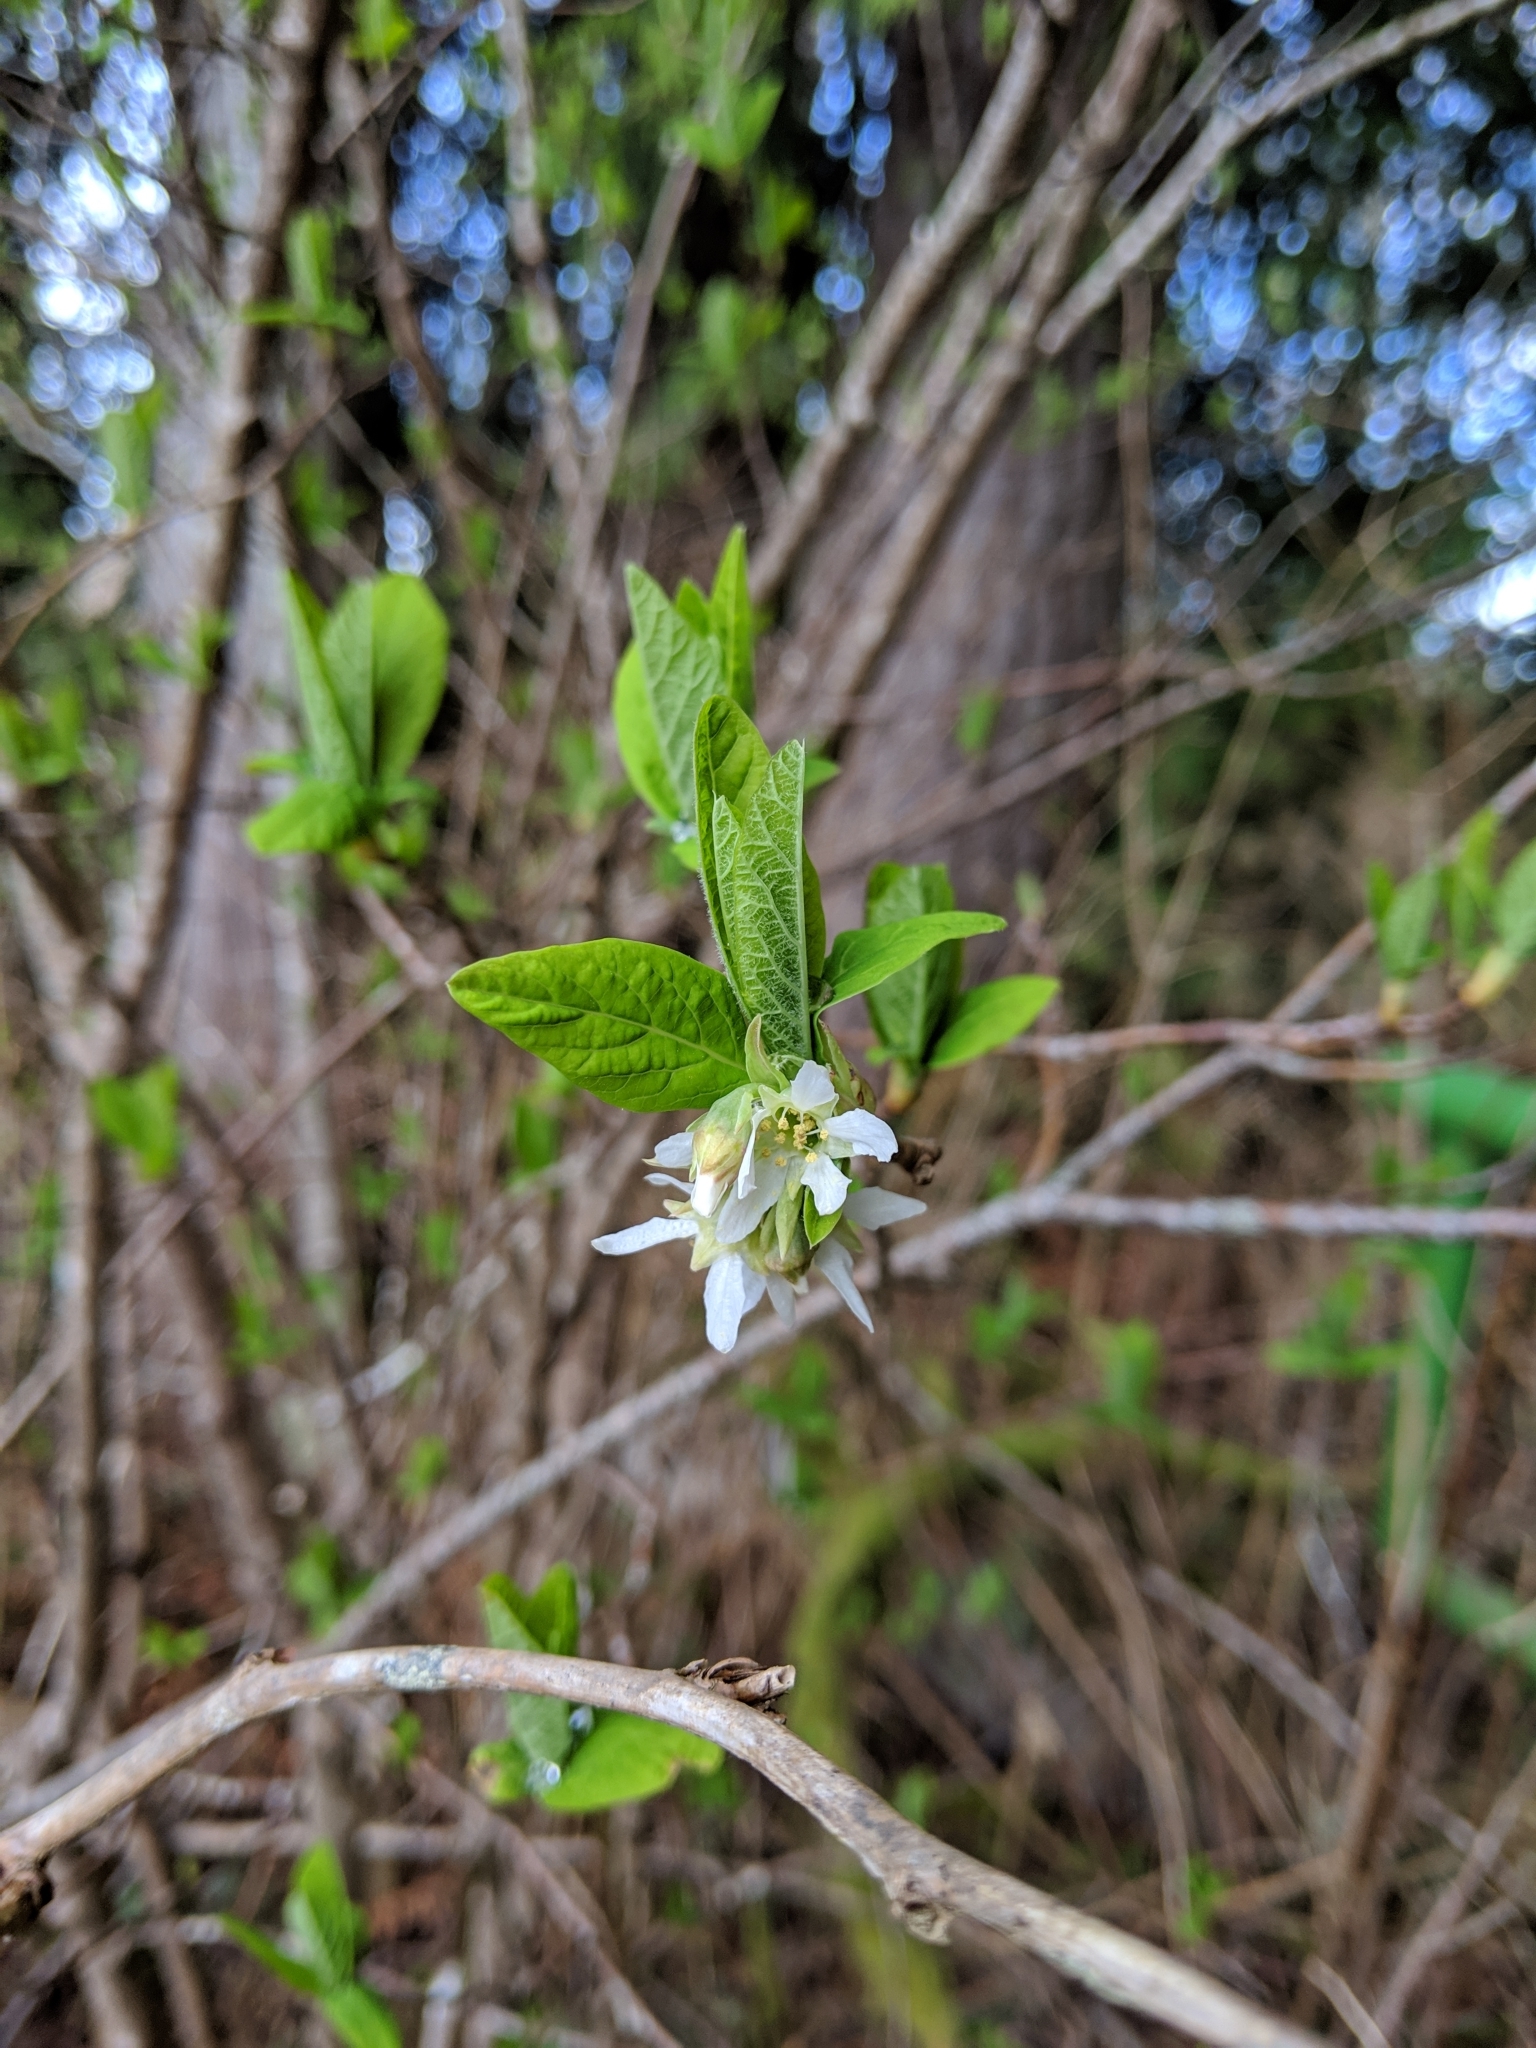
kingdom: Plantae
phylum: Tracheophyta
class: Magnoliopsida
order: Rosales
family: Rosaceae
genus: Oemleria
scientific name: Oemleria cerasiformis
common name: Osoberry
